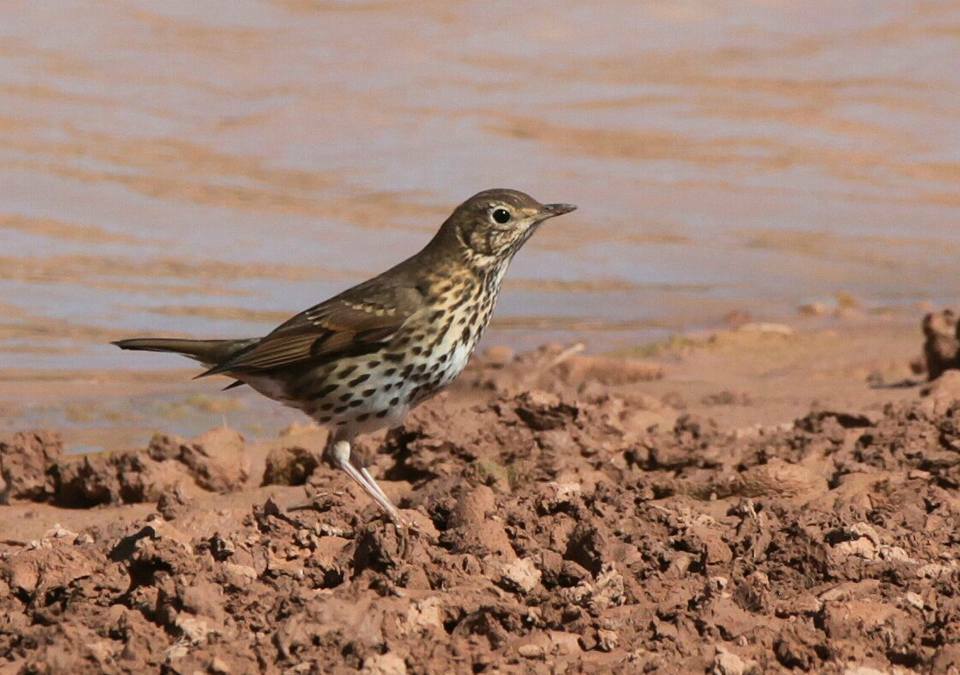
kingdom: Animalia
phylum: Chordata
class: Aves
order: Passeriformes
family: Turdidae
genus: Turdus
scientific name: Turdus philomelos
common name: Song thrush
